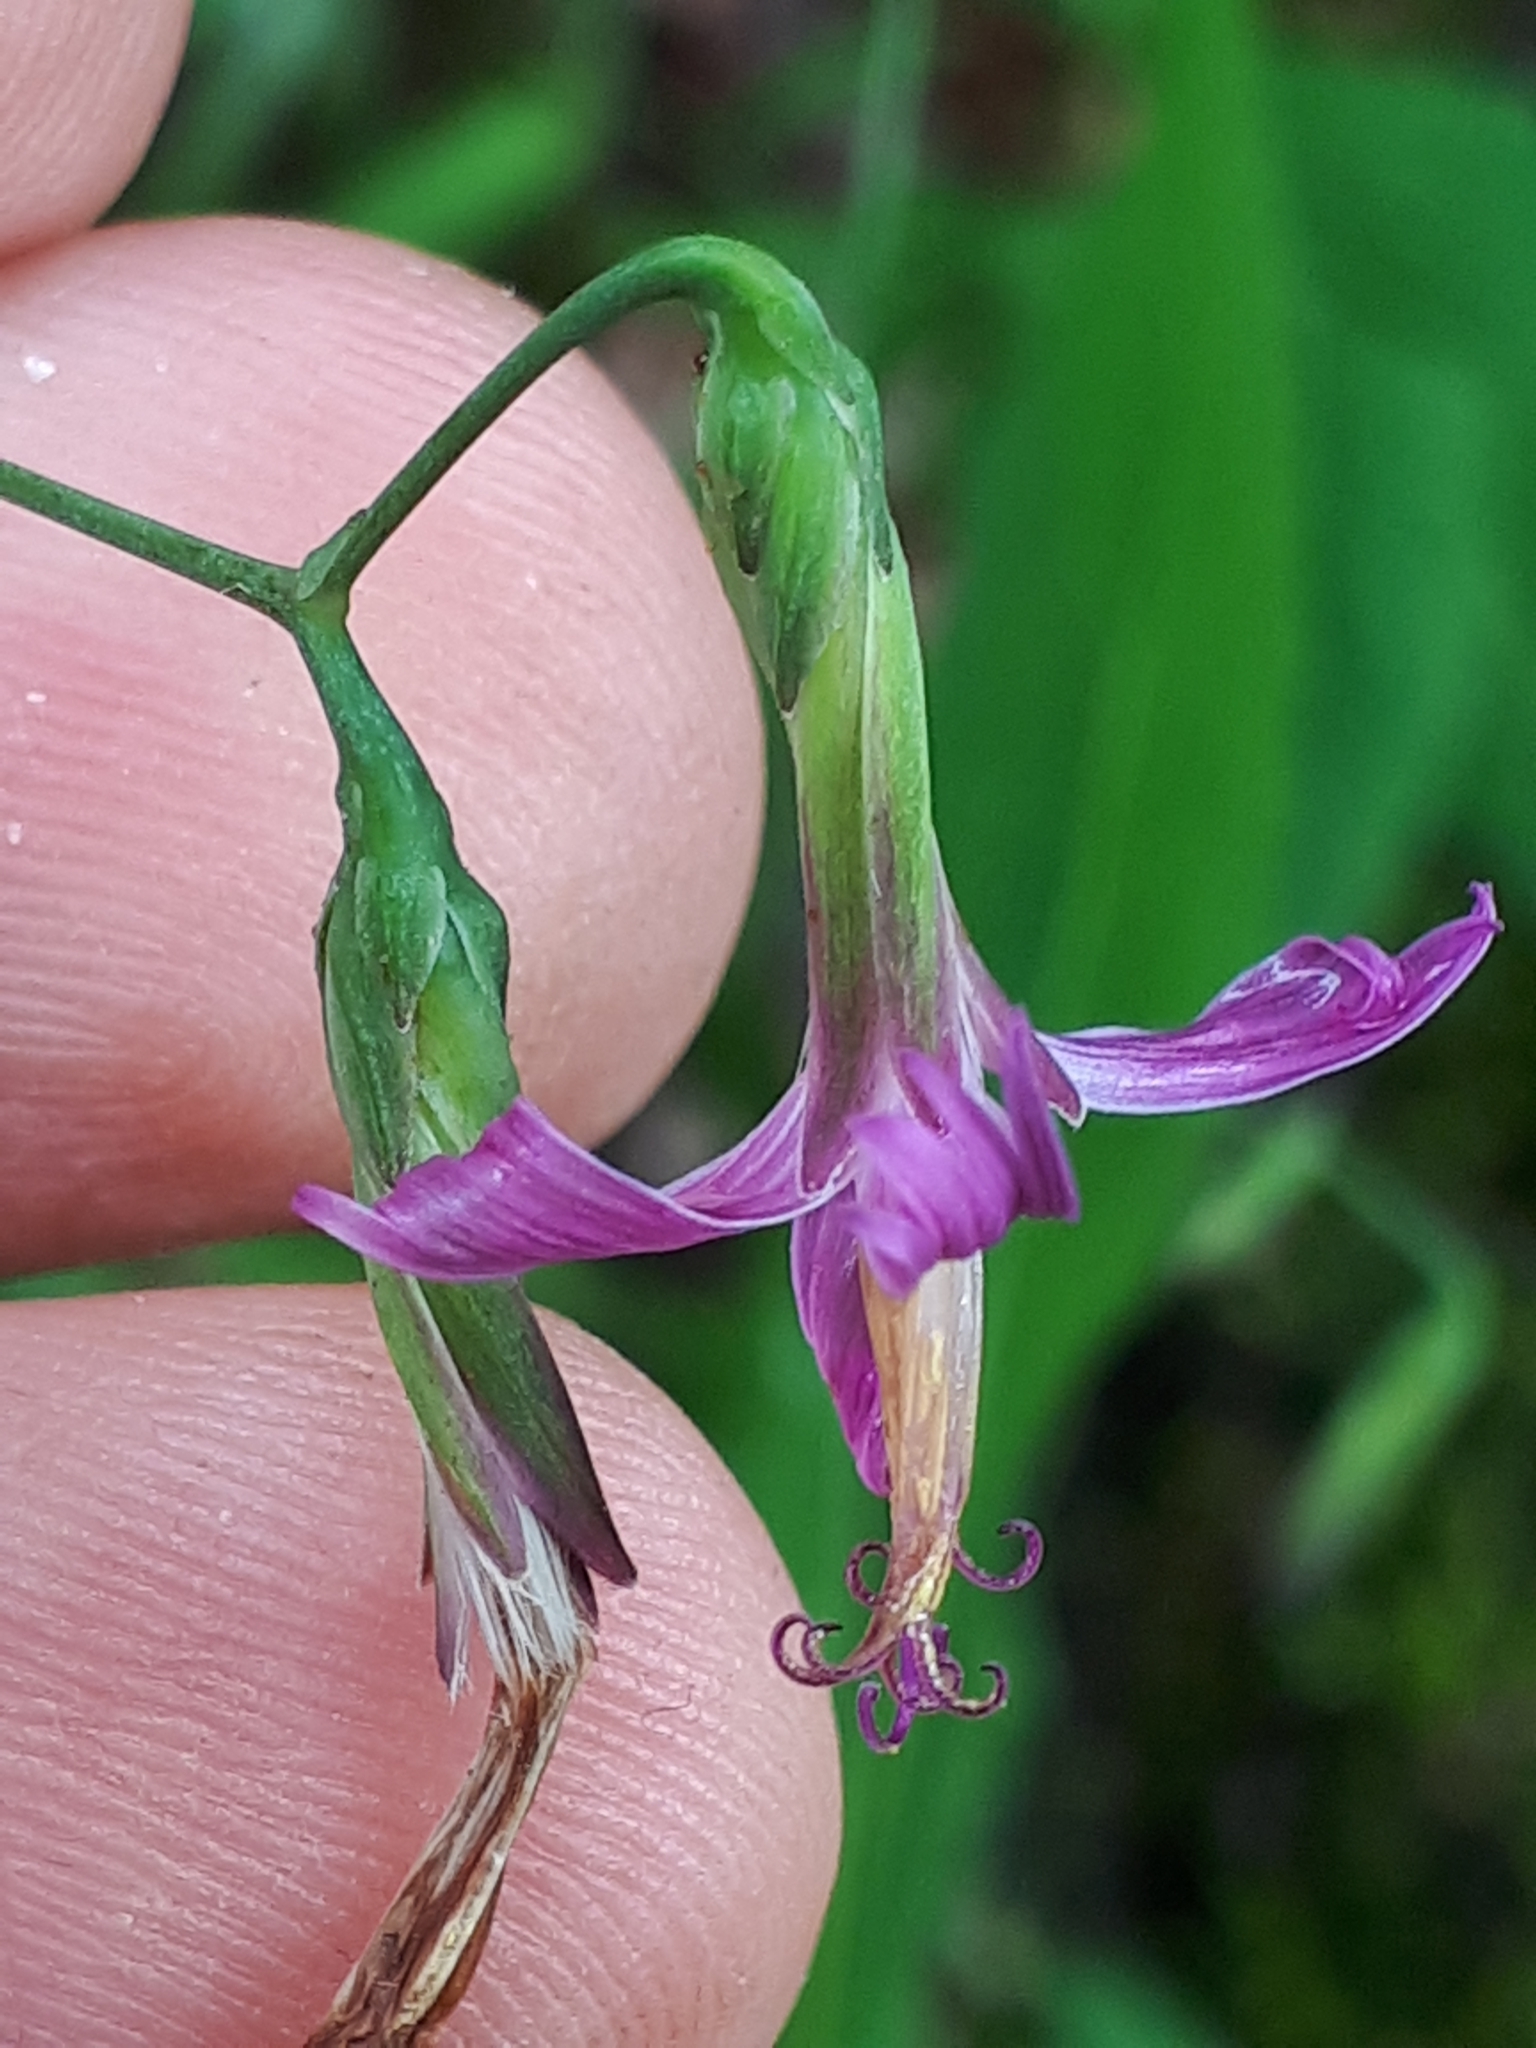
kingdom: Plantae
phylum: Tracheophyta
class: Magnoliopsida
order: Asterales
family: Asteraceae
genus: Prenanthes
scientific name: Prenanthes purpurea
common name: Purple lettuce
